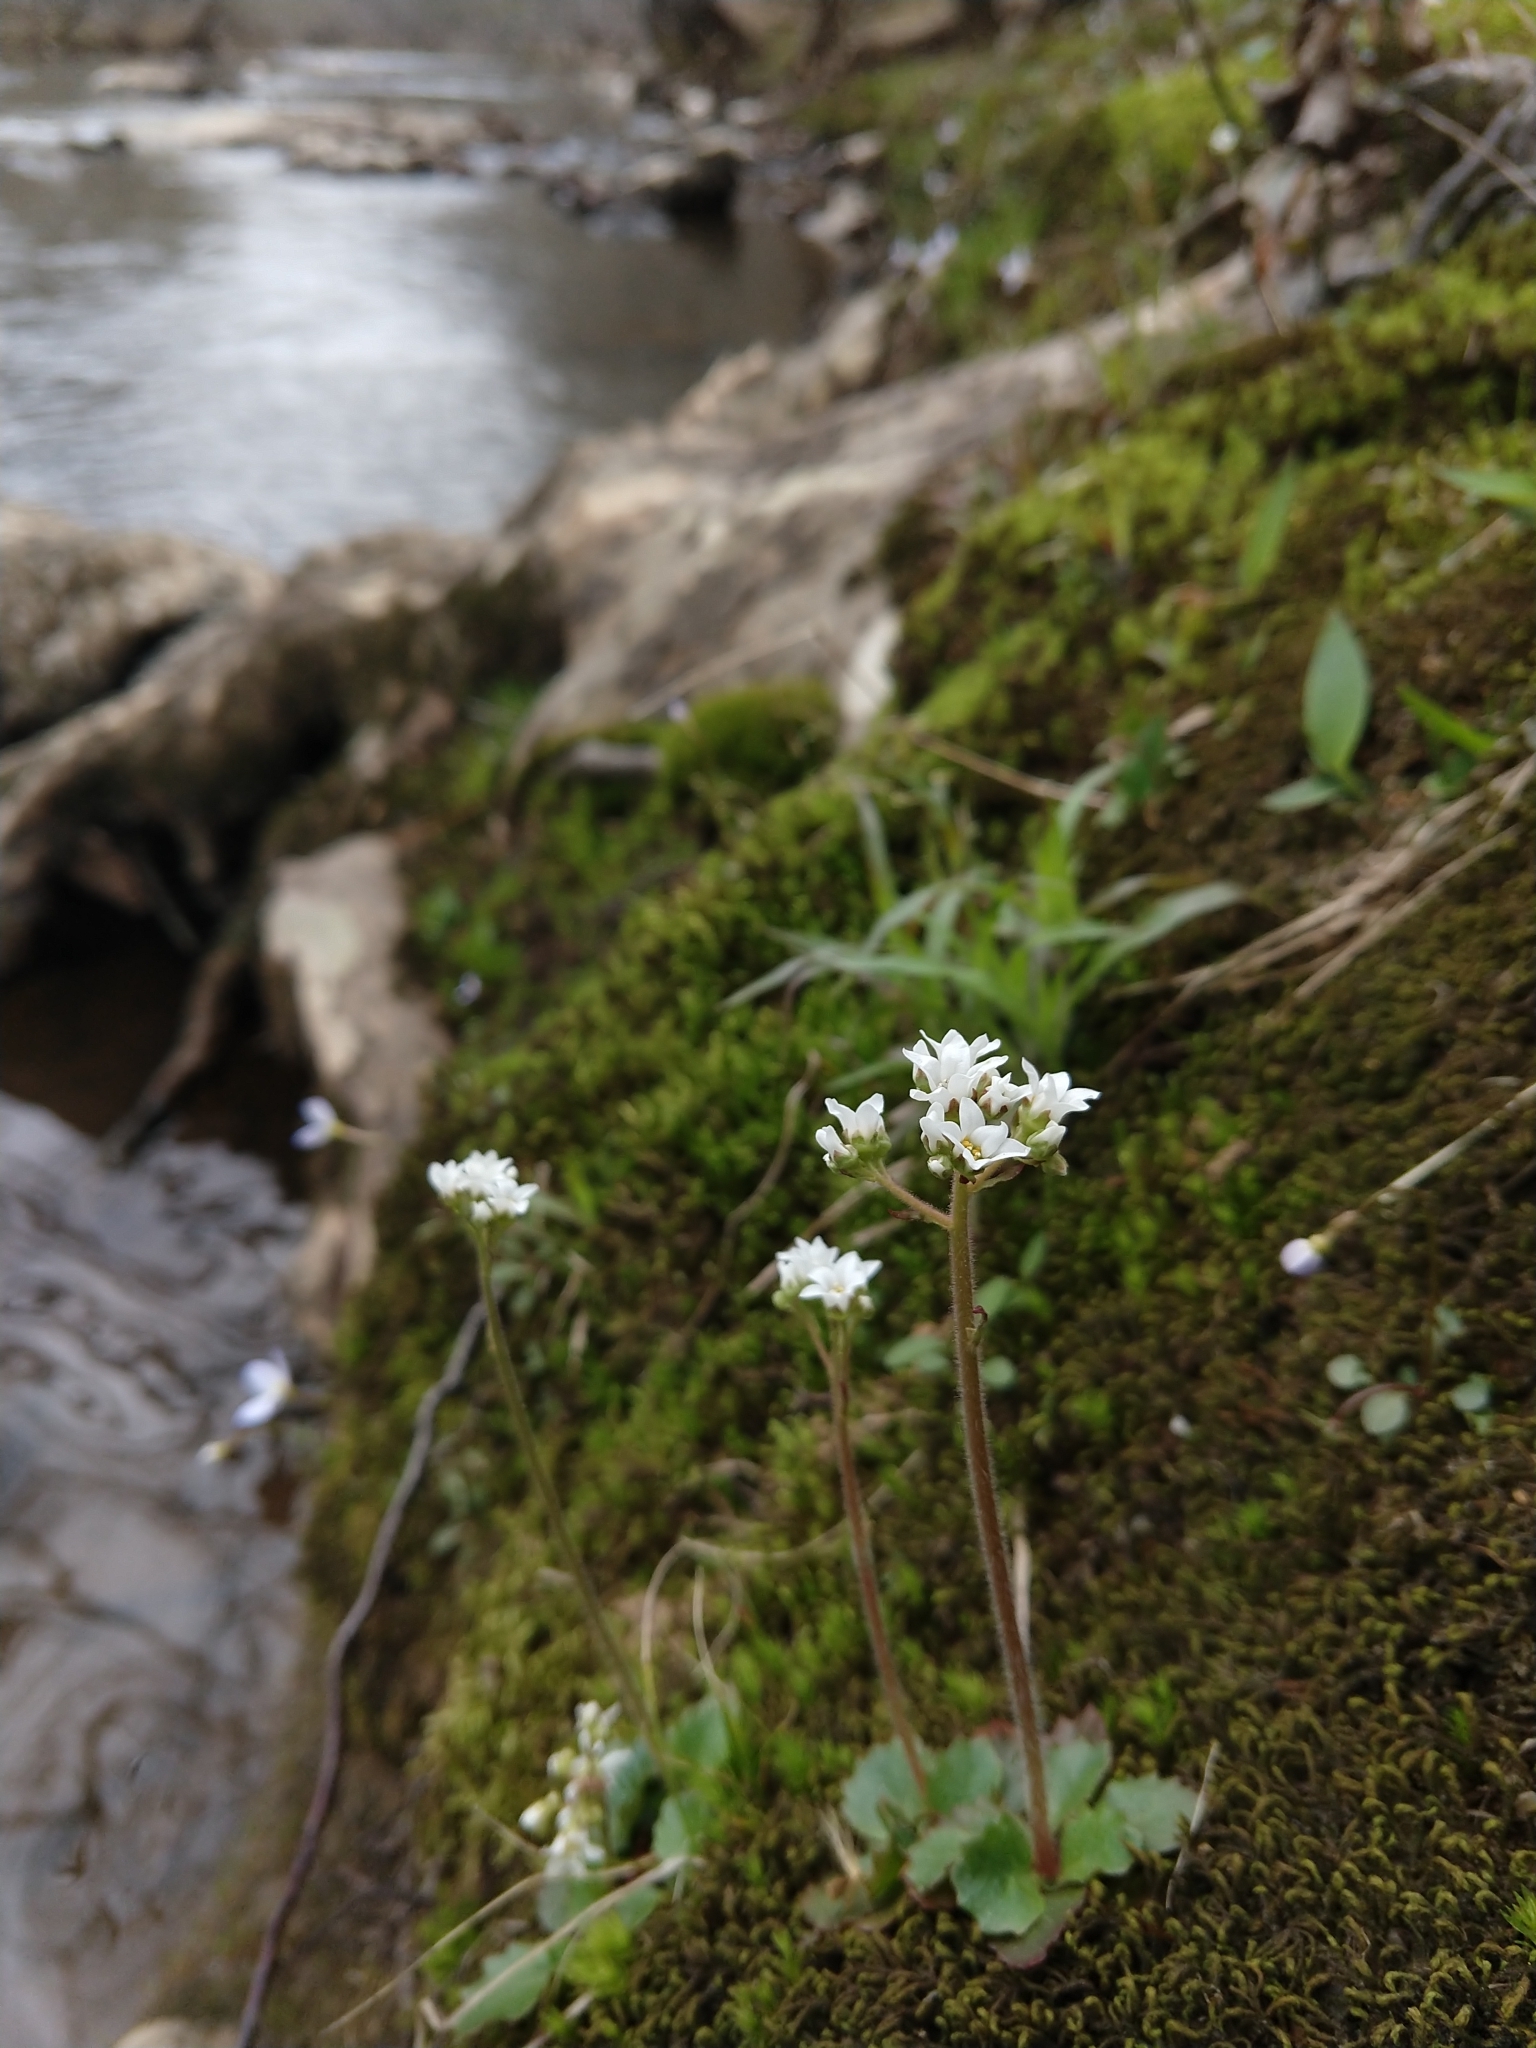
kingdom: Plantae
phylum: Tracheophyta
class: Magnoliopsida
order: Saxifragales
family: Saxifragaceae
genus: Micranthes
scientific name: Micranthes virginiensis
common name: Early saxifrage
